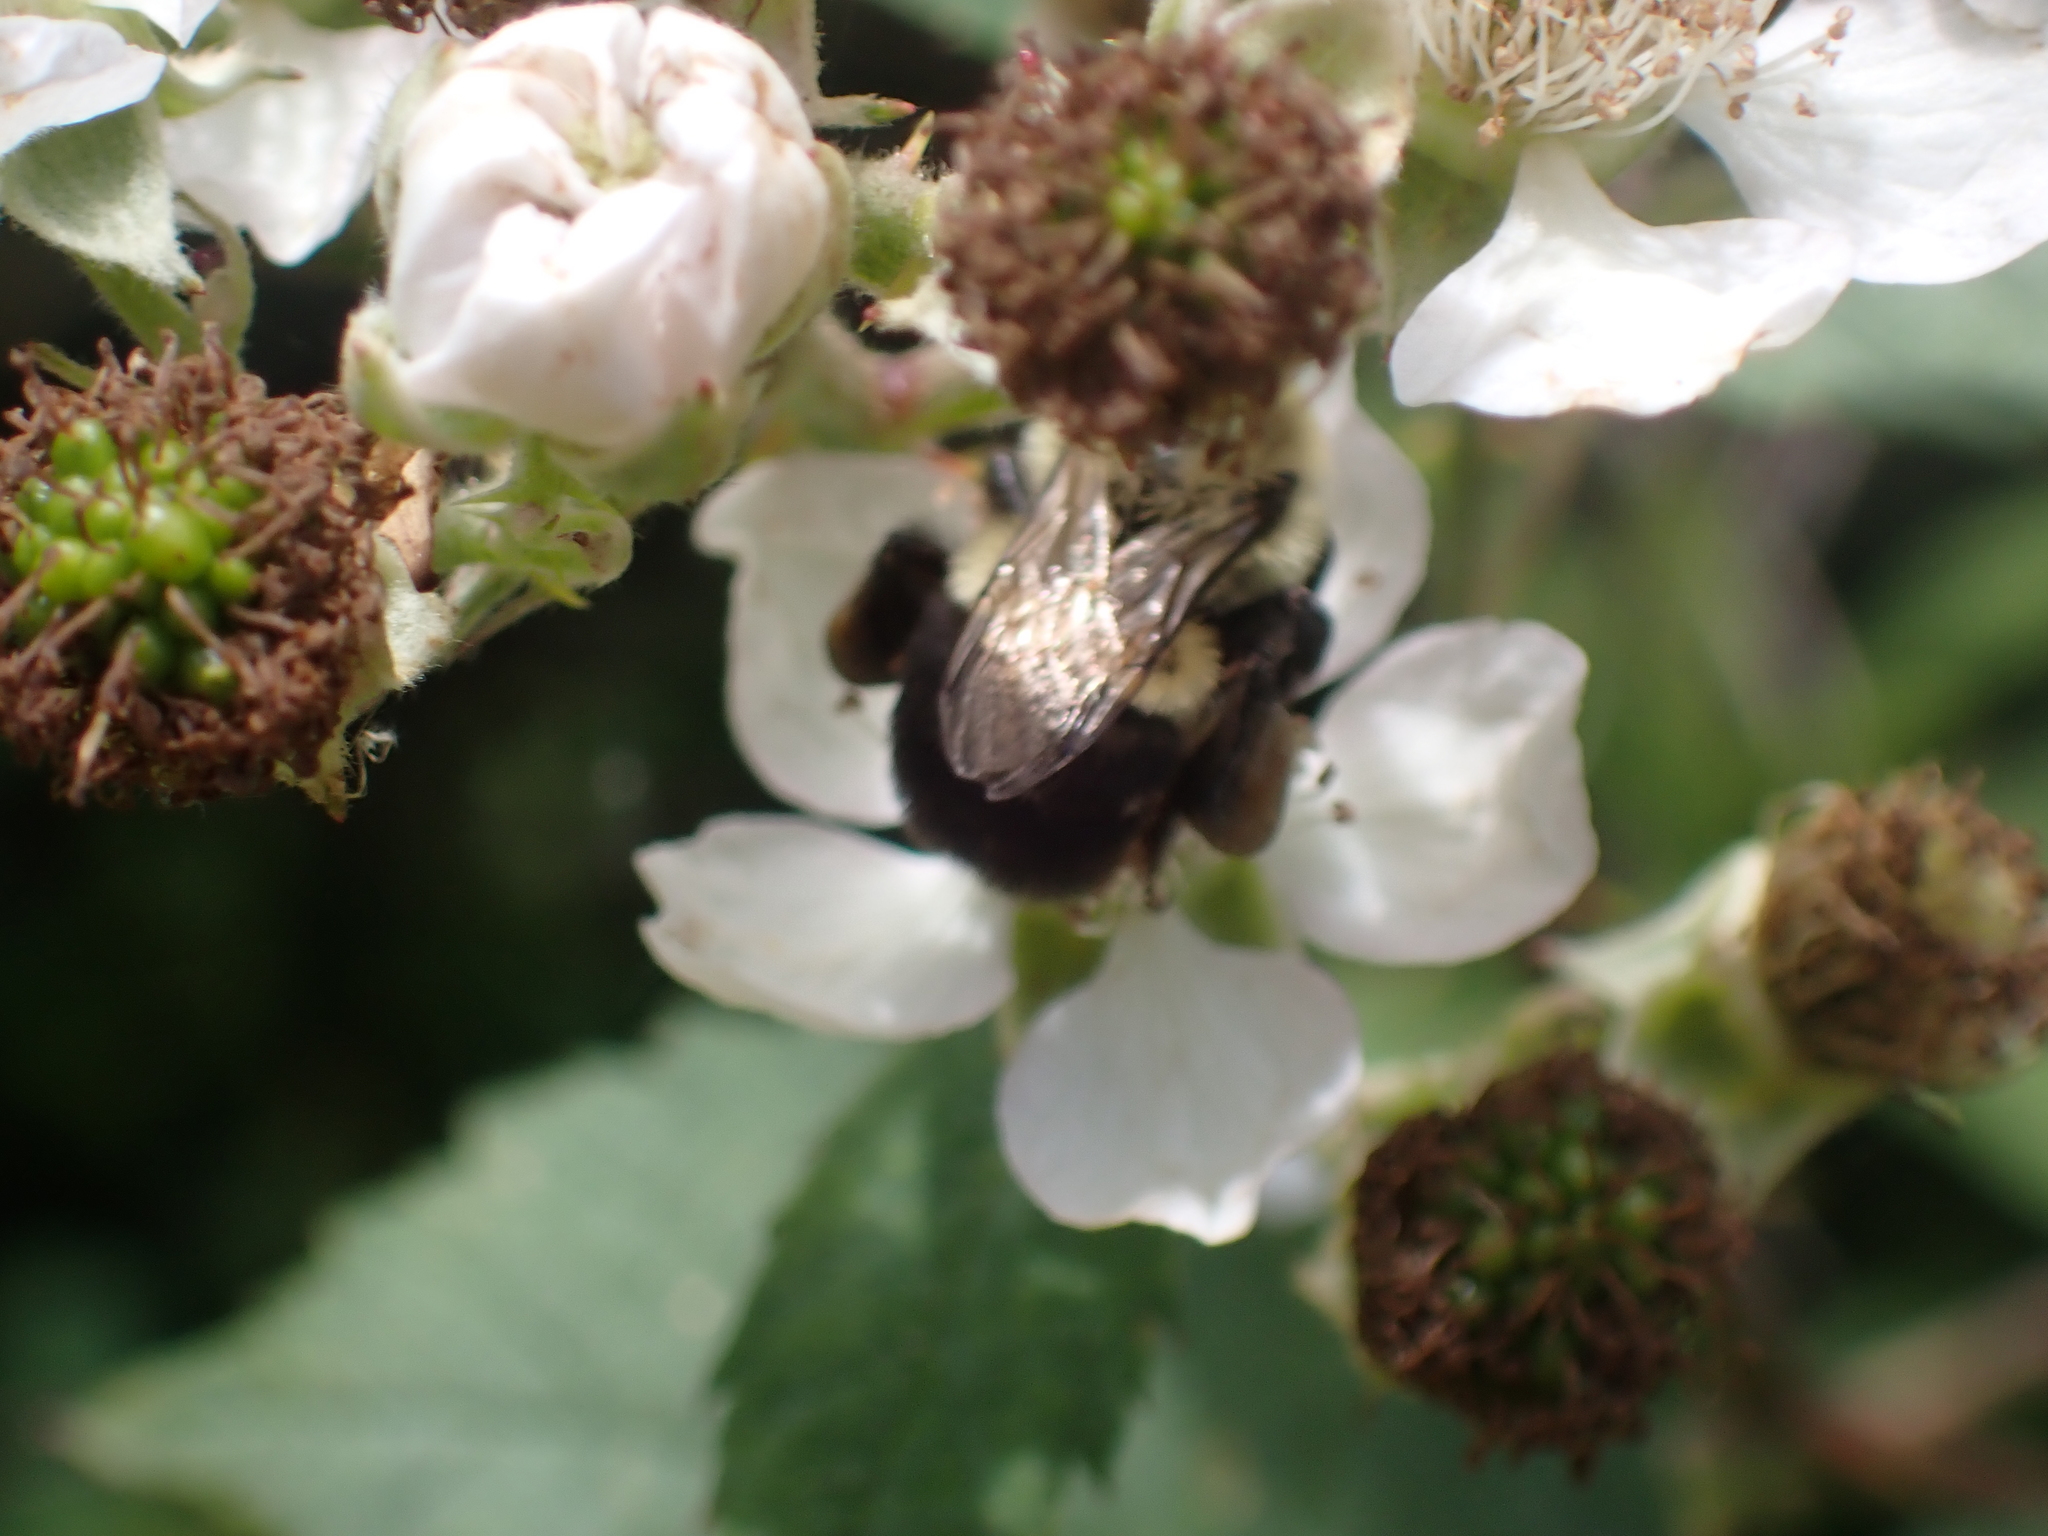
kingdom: Animalia
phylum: Arthropoda
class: Insecta
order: Hymenoptera
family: Apidae
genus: Bombus
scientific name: Bombus impatiens
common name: Common eastern bumble bee
